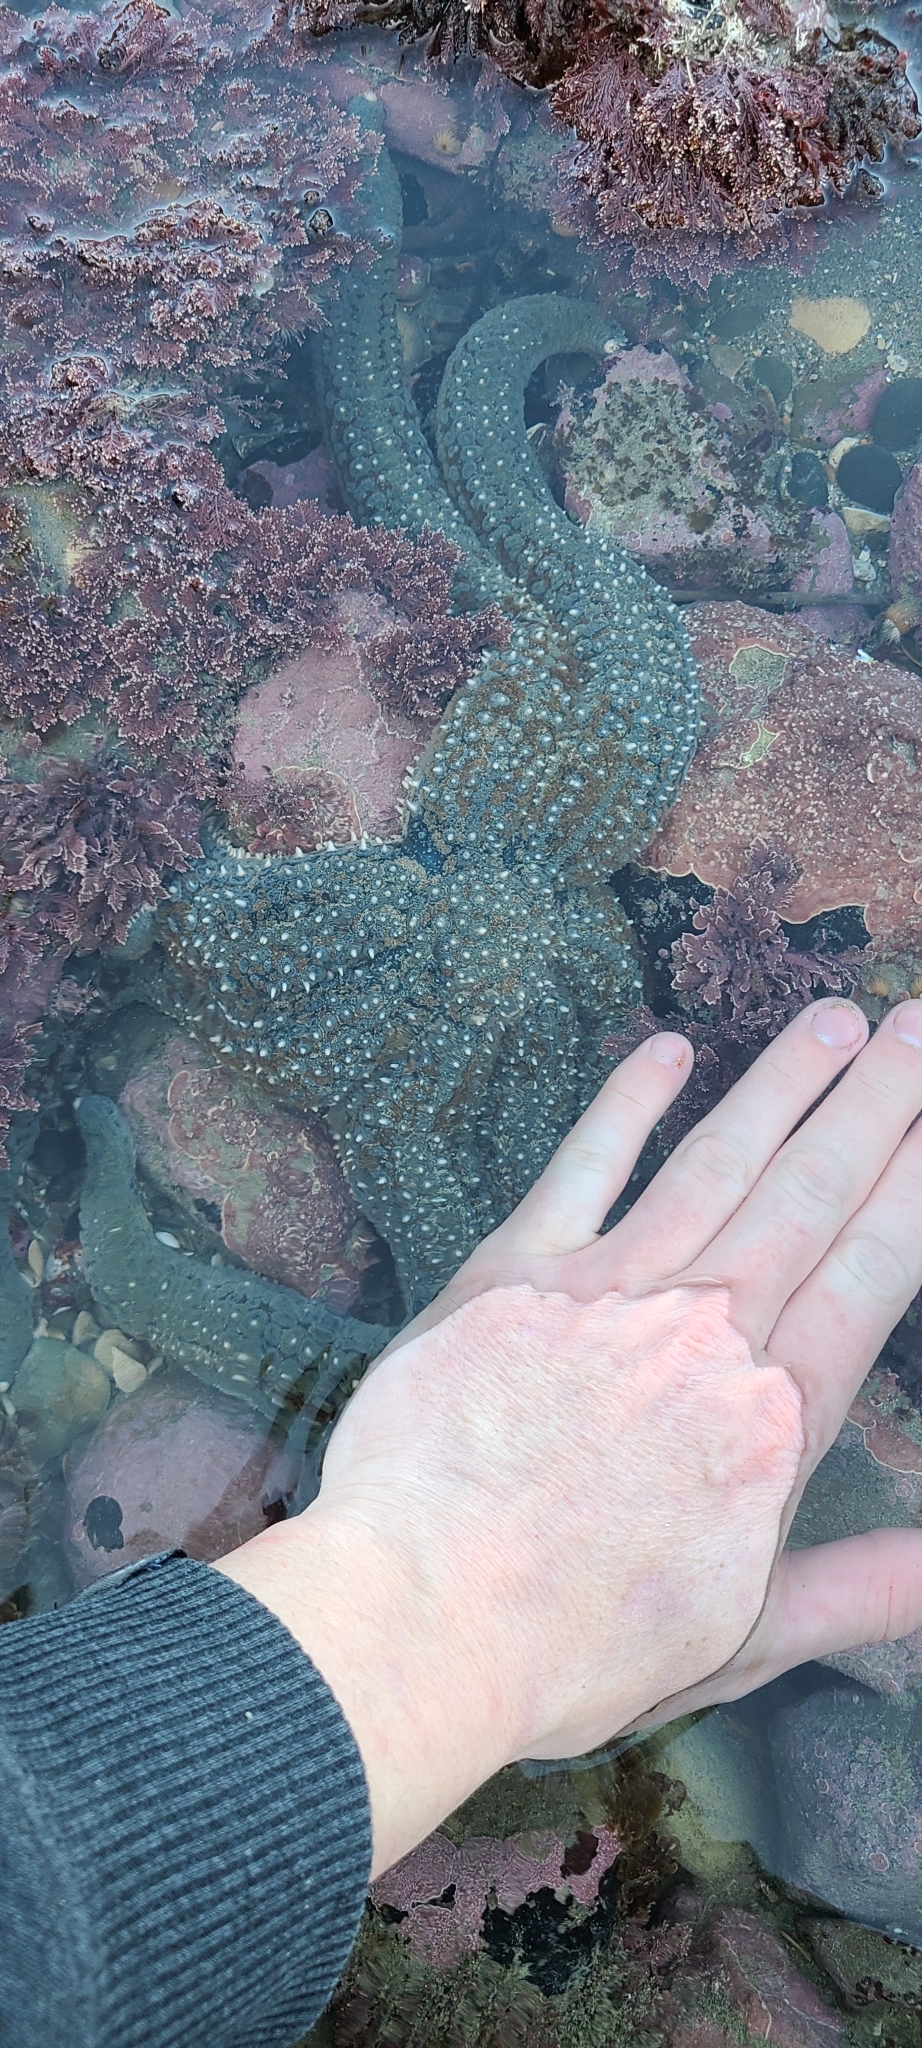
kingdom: Animalia
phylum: Echinodermata
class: Asteroidea
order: Forcipulatida
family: Asteriidae
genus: Astrostole
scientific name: Astrostole scabra
